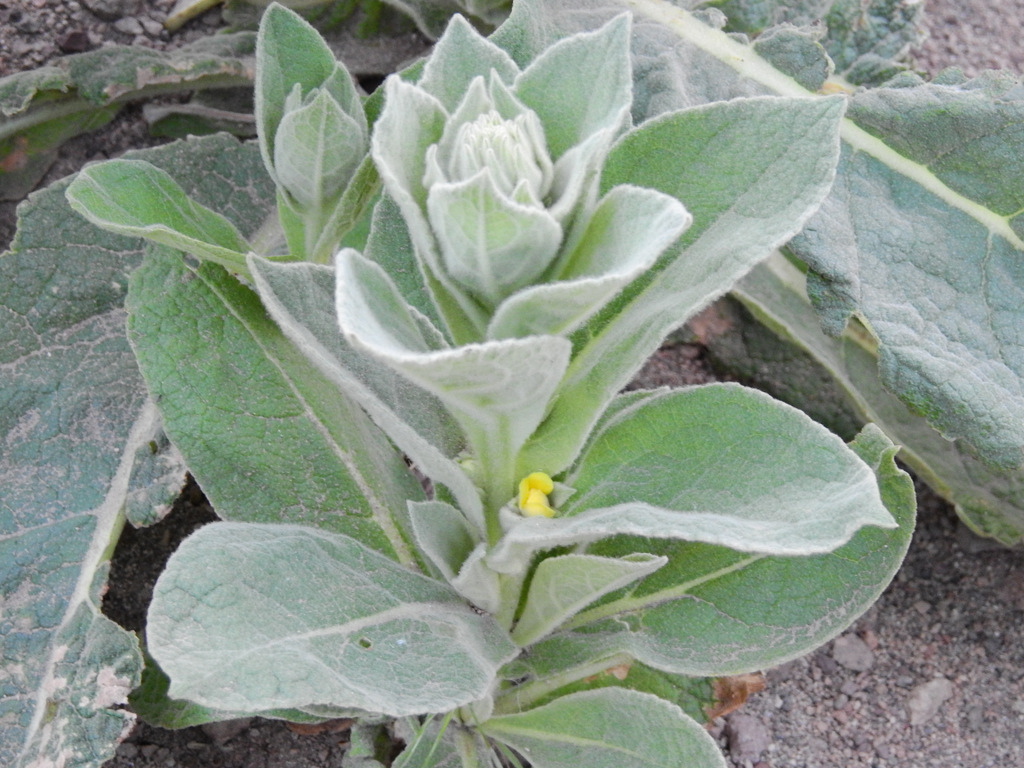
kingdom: Plantae
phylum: Tracheophyta
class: Magnoliopsida
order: Lamiales
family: Scrophulariaceae
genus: Verbascum
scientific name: Verbascum thapsus
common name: Common mullein
